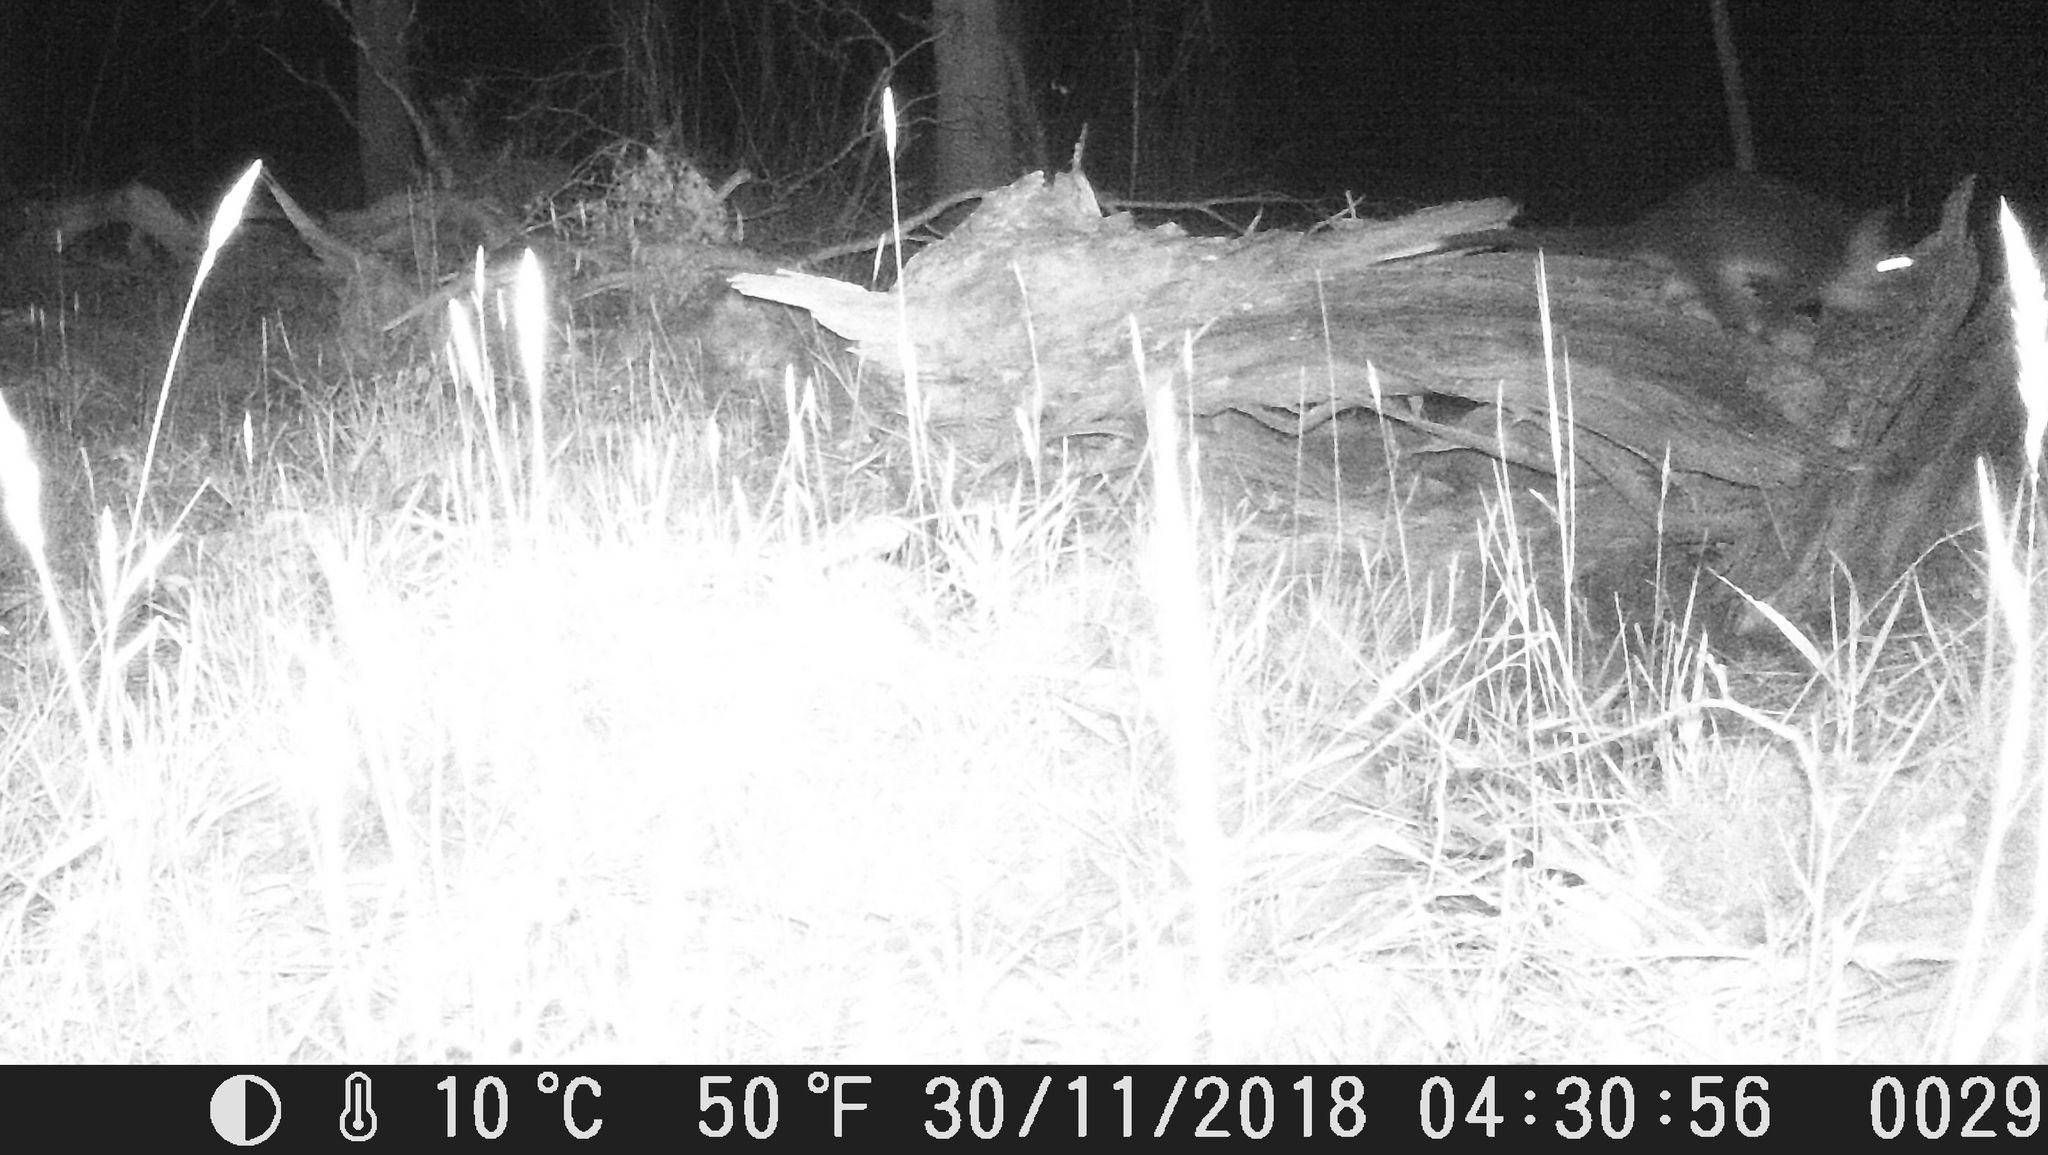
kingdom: Animalia
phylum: Chordata
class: Mammalia
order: Diprotodontia
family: Pseudocheiridae
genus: Pseudocheirus
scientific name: Pseudocheirus peregrinus
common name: Common ringtail possum
